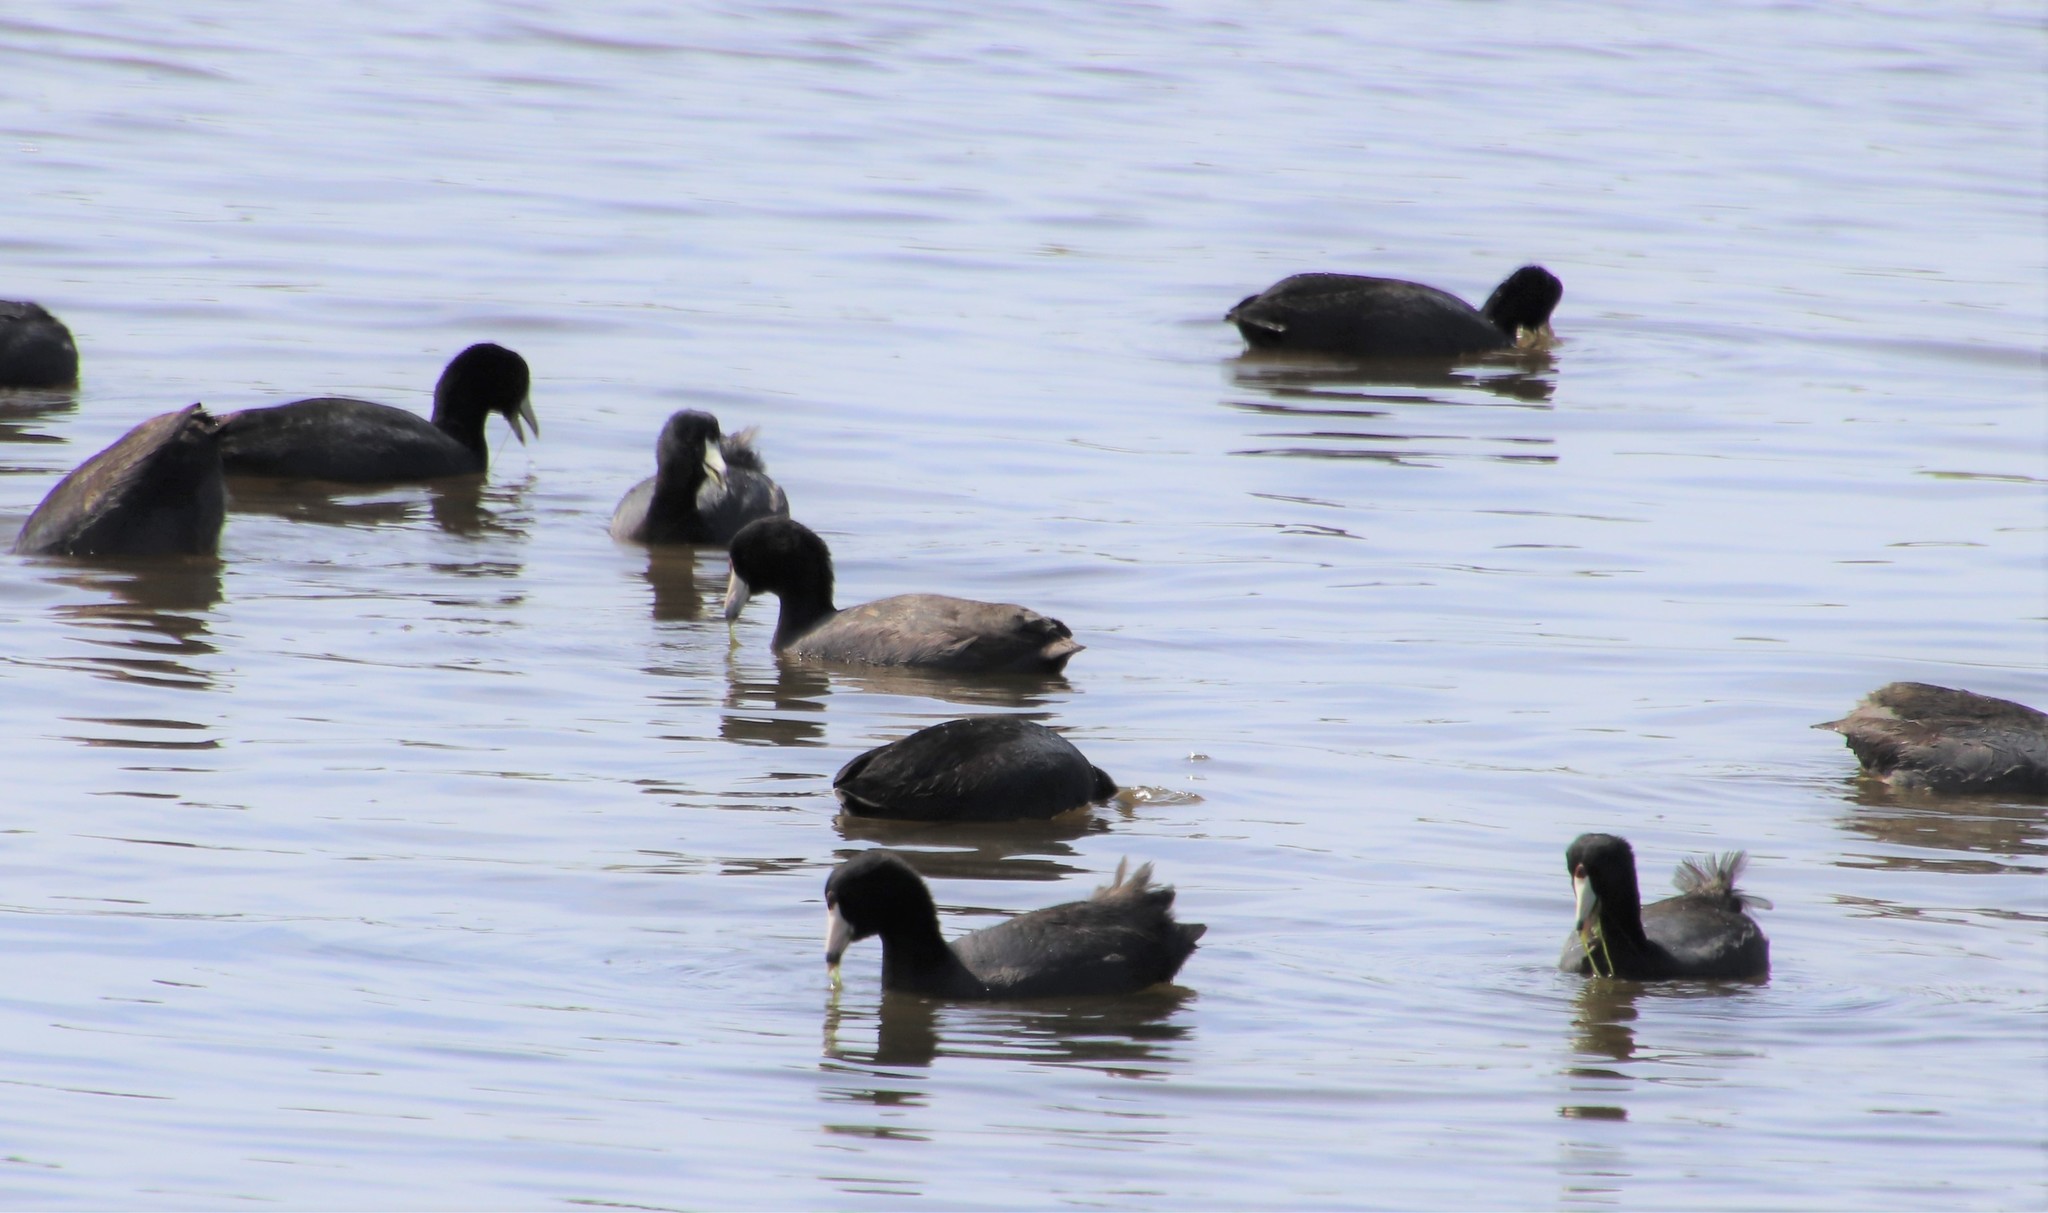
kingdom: Animalia
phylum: Chordata
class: Aves
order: Gruiformes
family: Rallidae
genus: Fulica
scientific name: Fulica americana
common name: American coot
